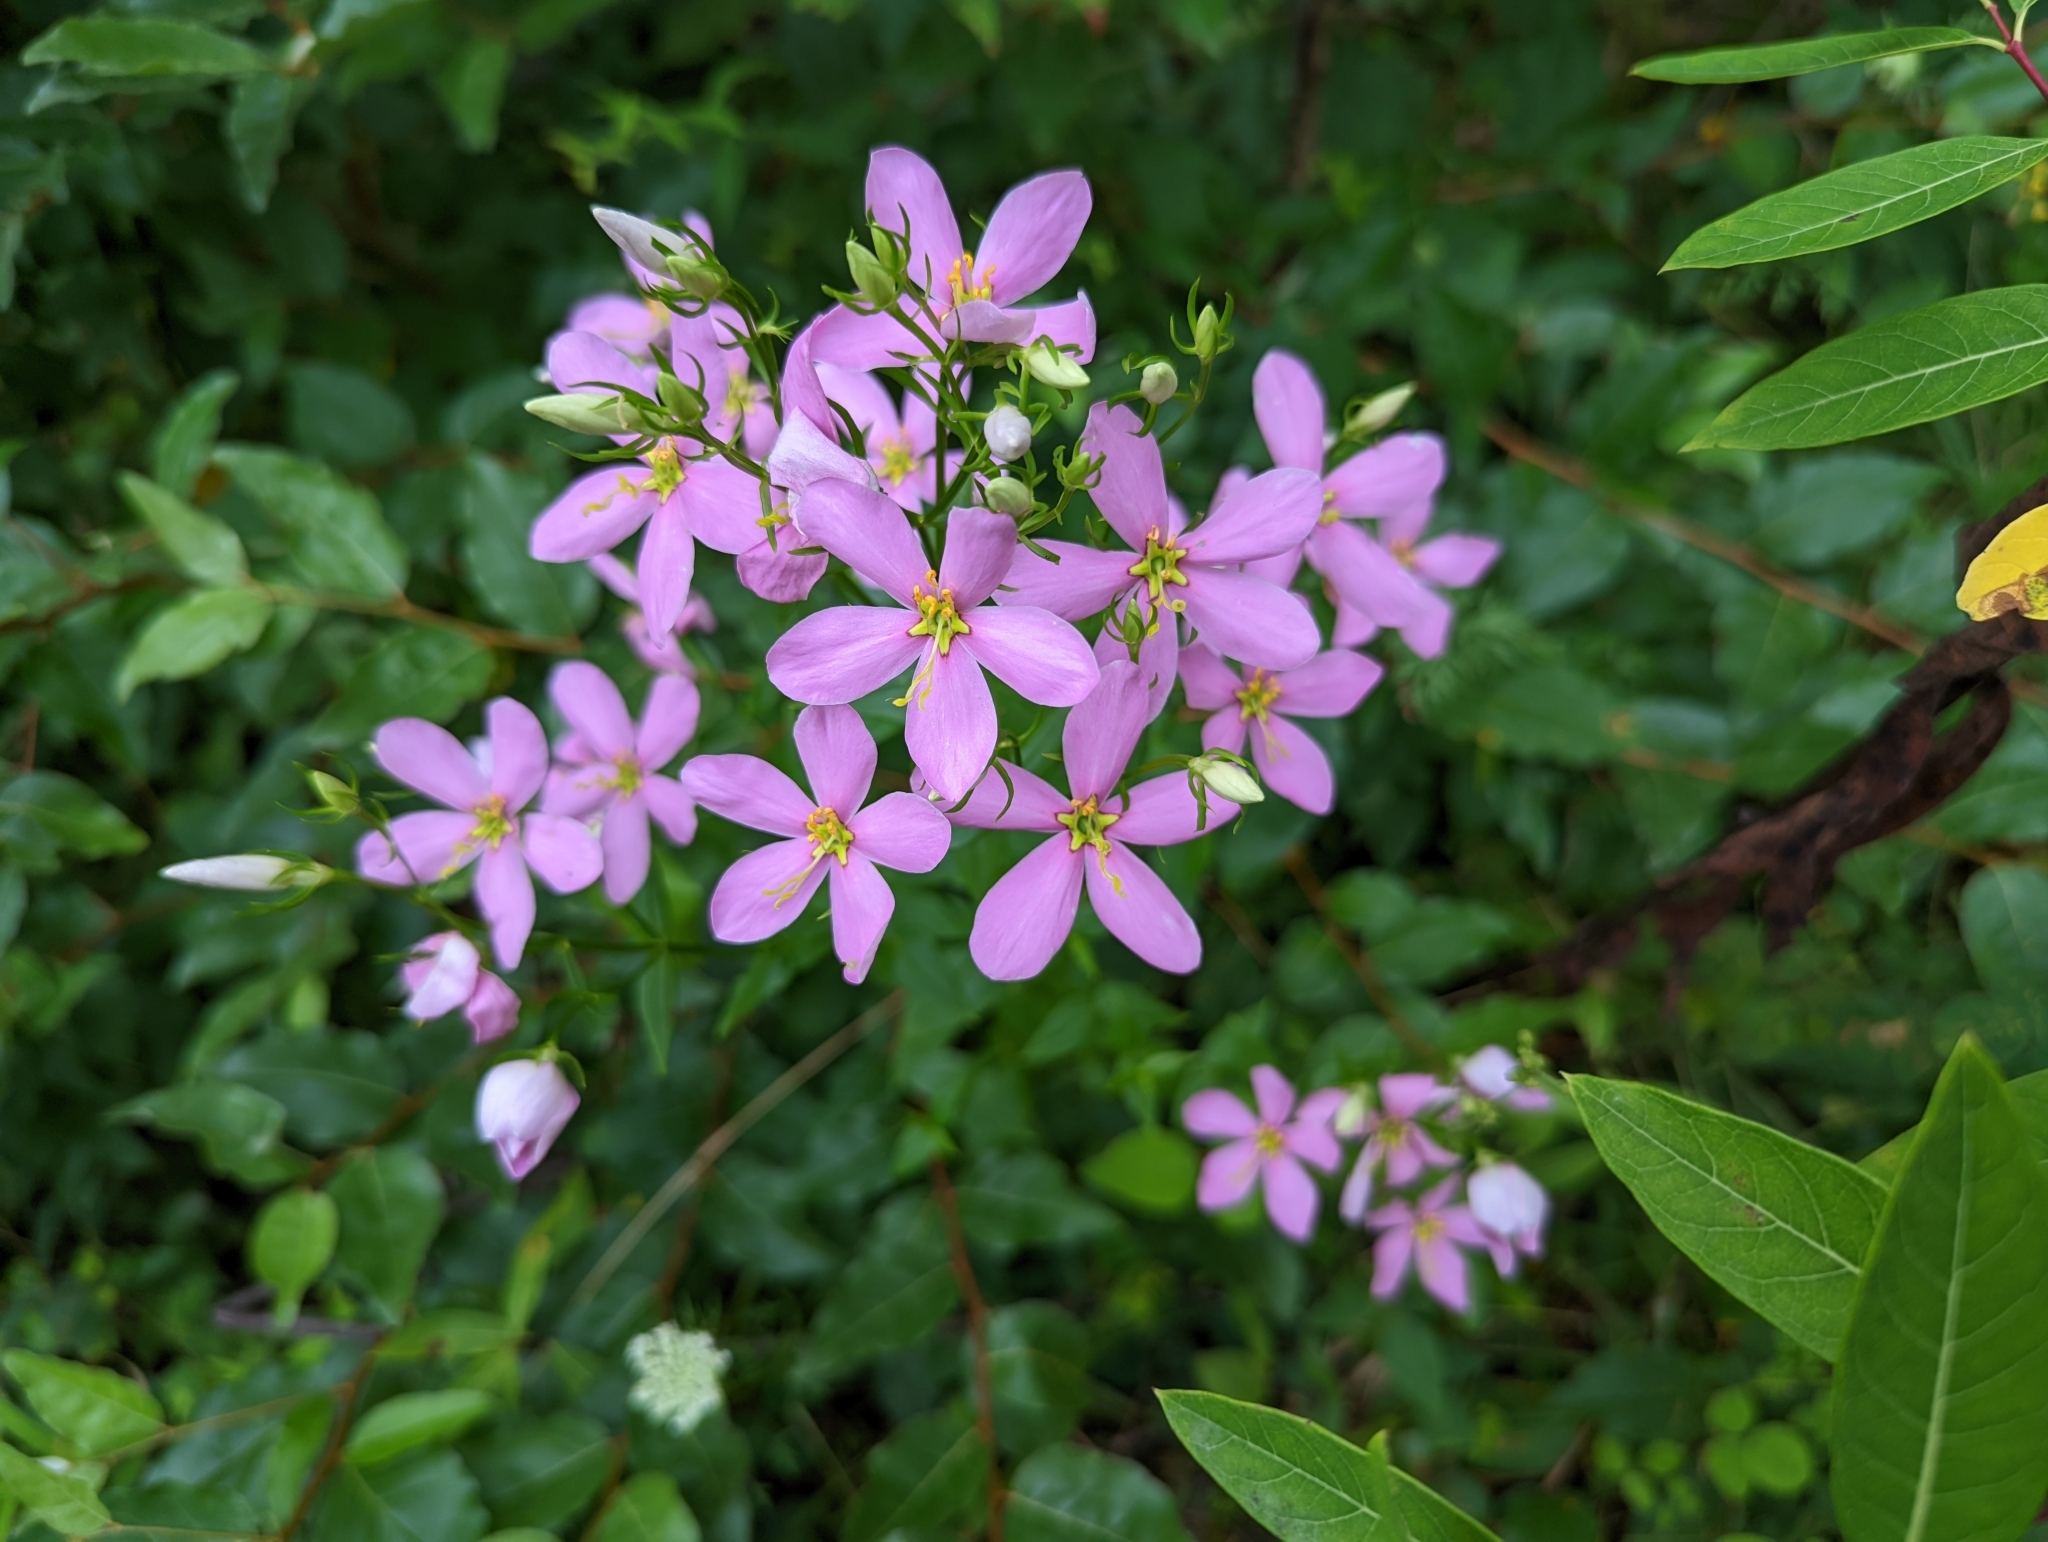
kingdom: Plantae
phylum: Tracheophyta
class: Magnoliopsida
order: Gentianales
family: Gentianaceae
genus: Sabatia
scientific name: Sabatia angularis
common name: Rose-pink
